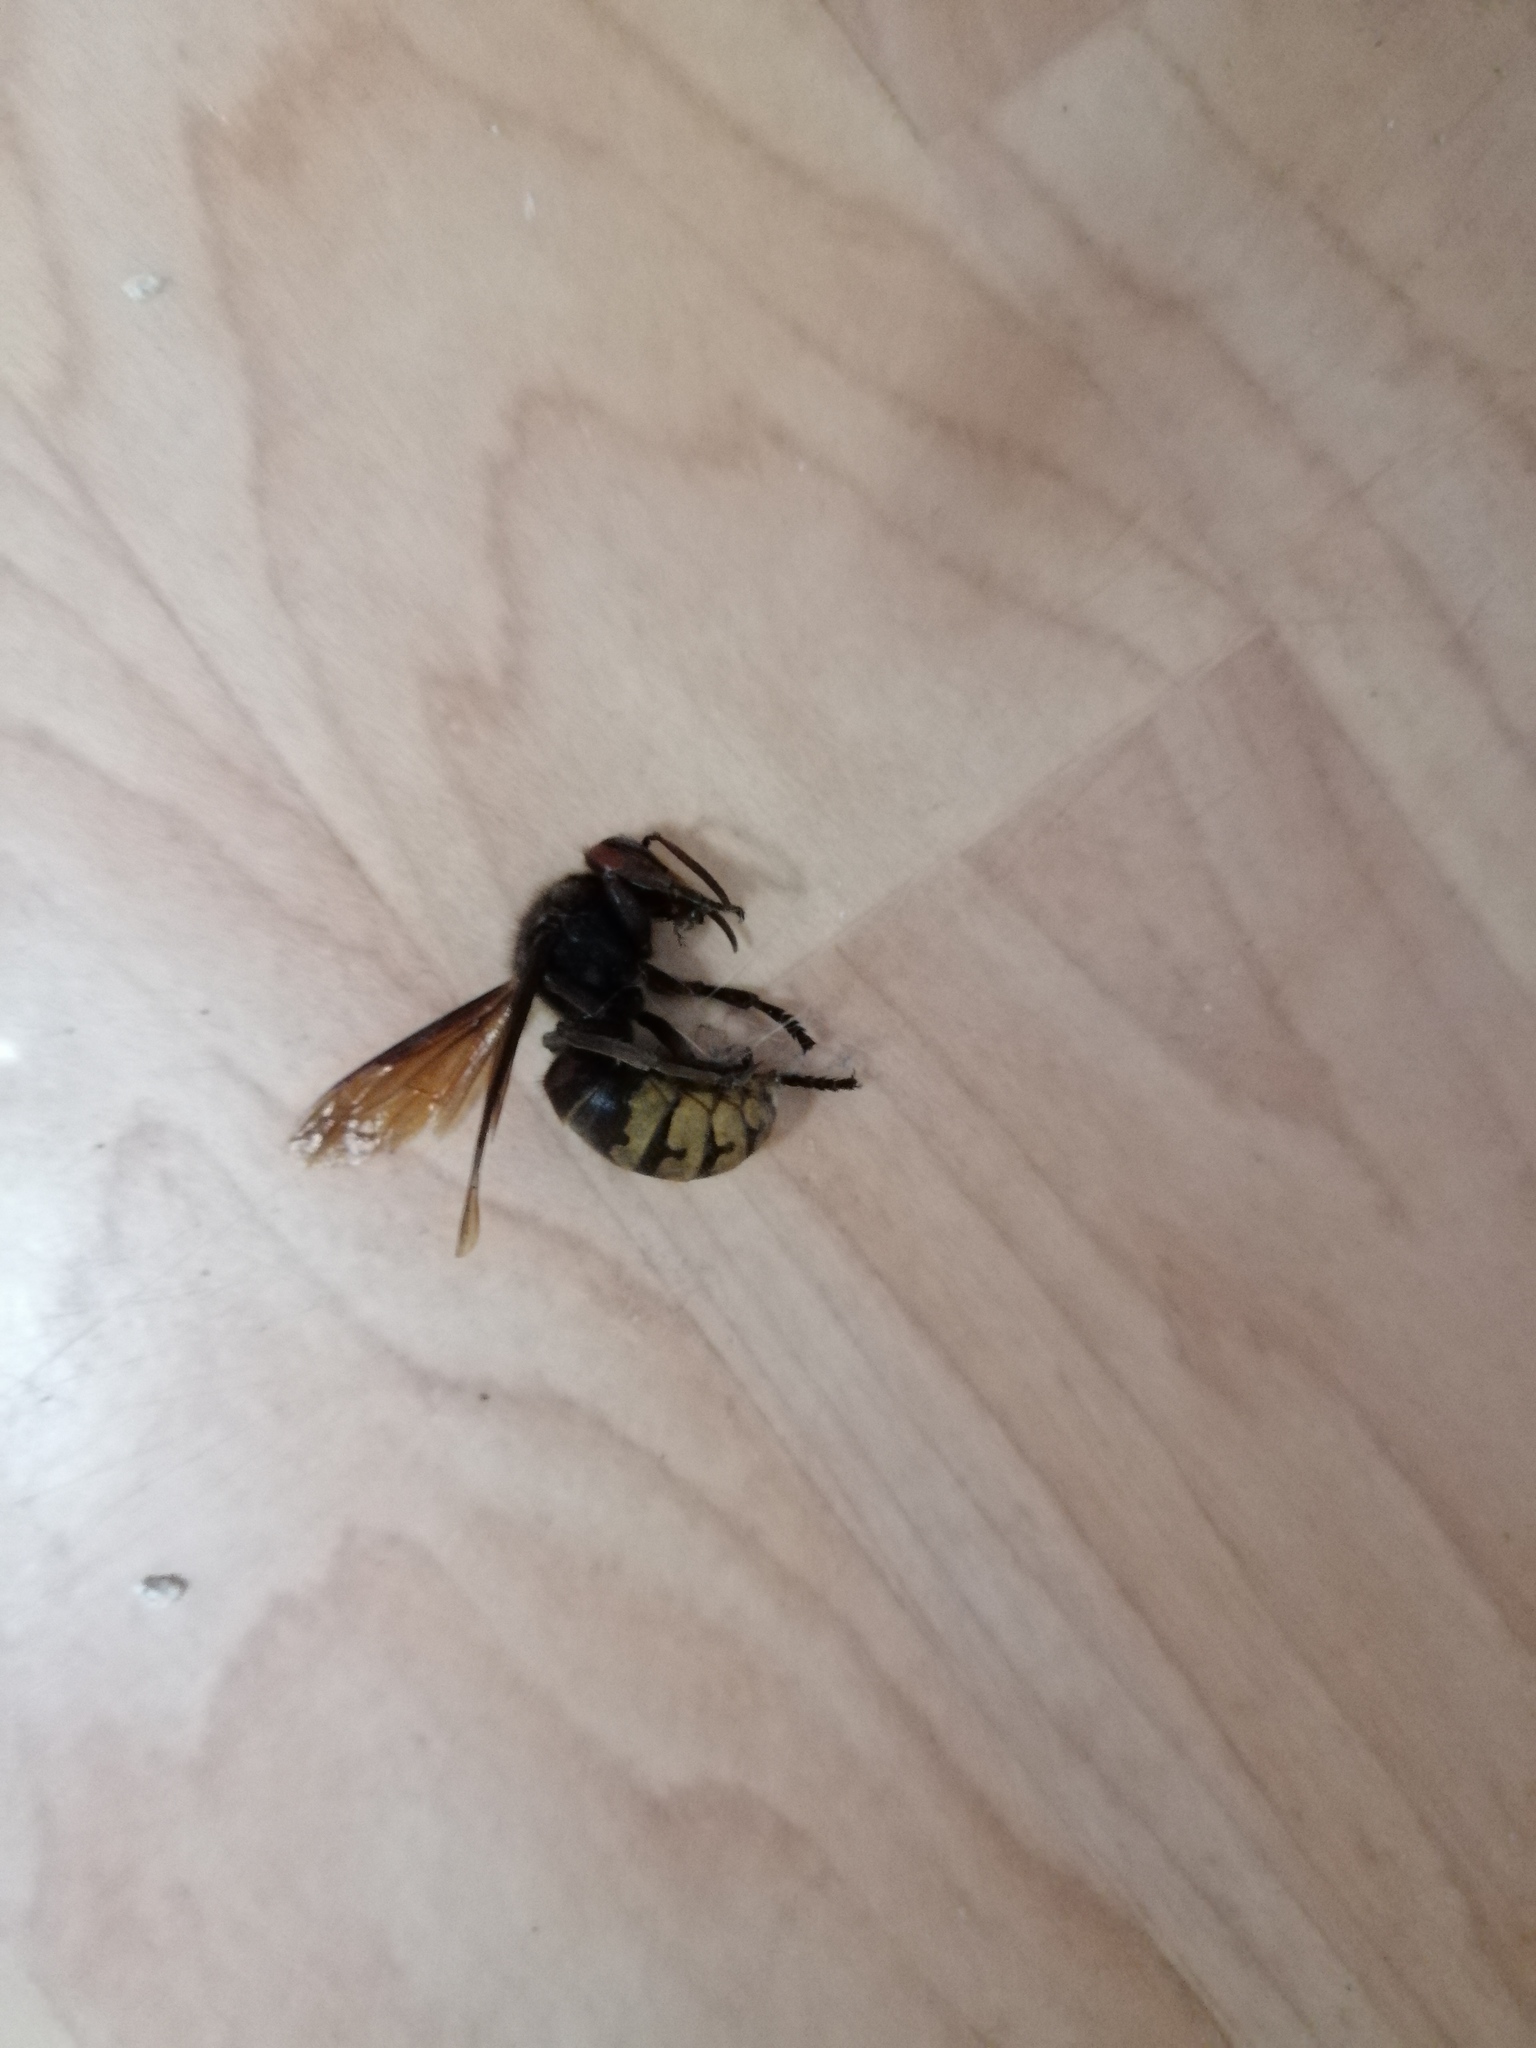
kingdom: Animalia
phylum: Arthropoda
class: Insecta
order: Hymenoptera
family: Vespidae
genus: Vespa
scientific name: Vespa crabro
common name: Hornet
